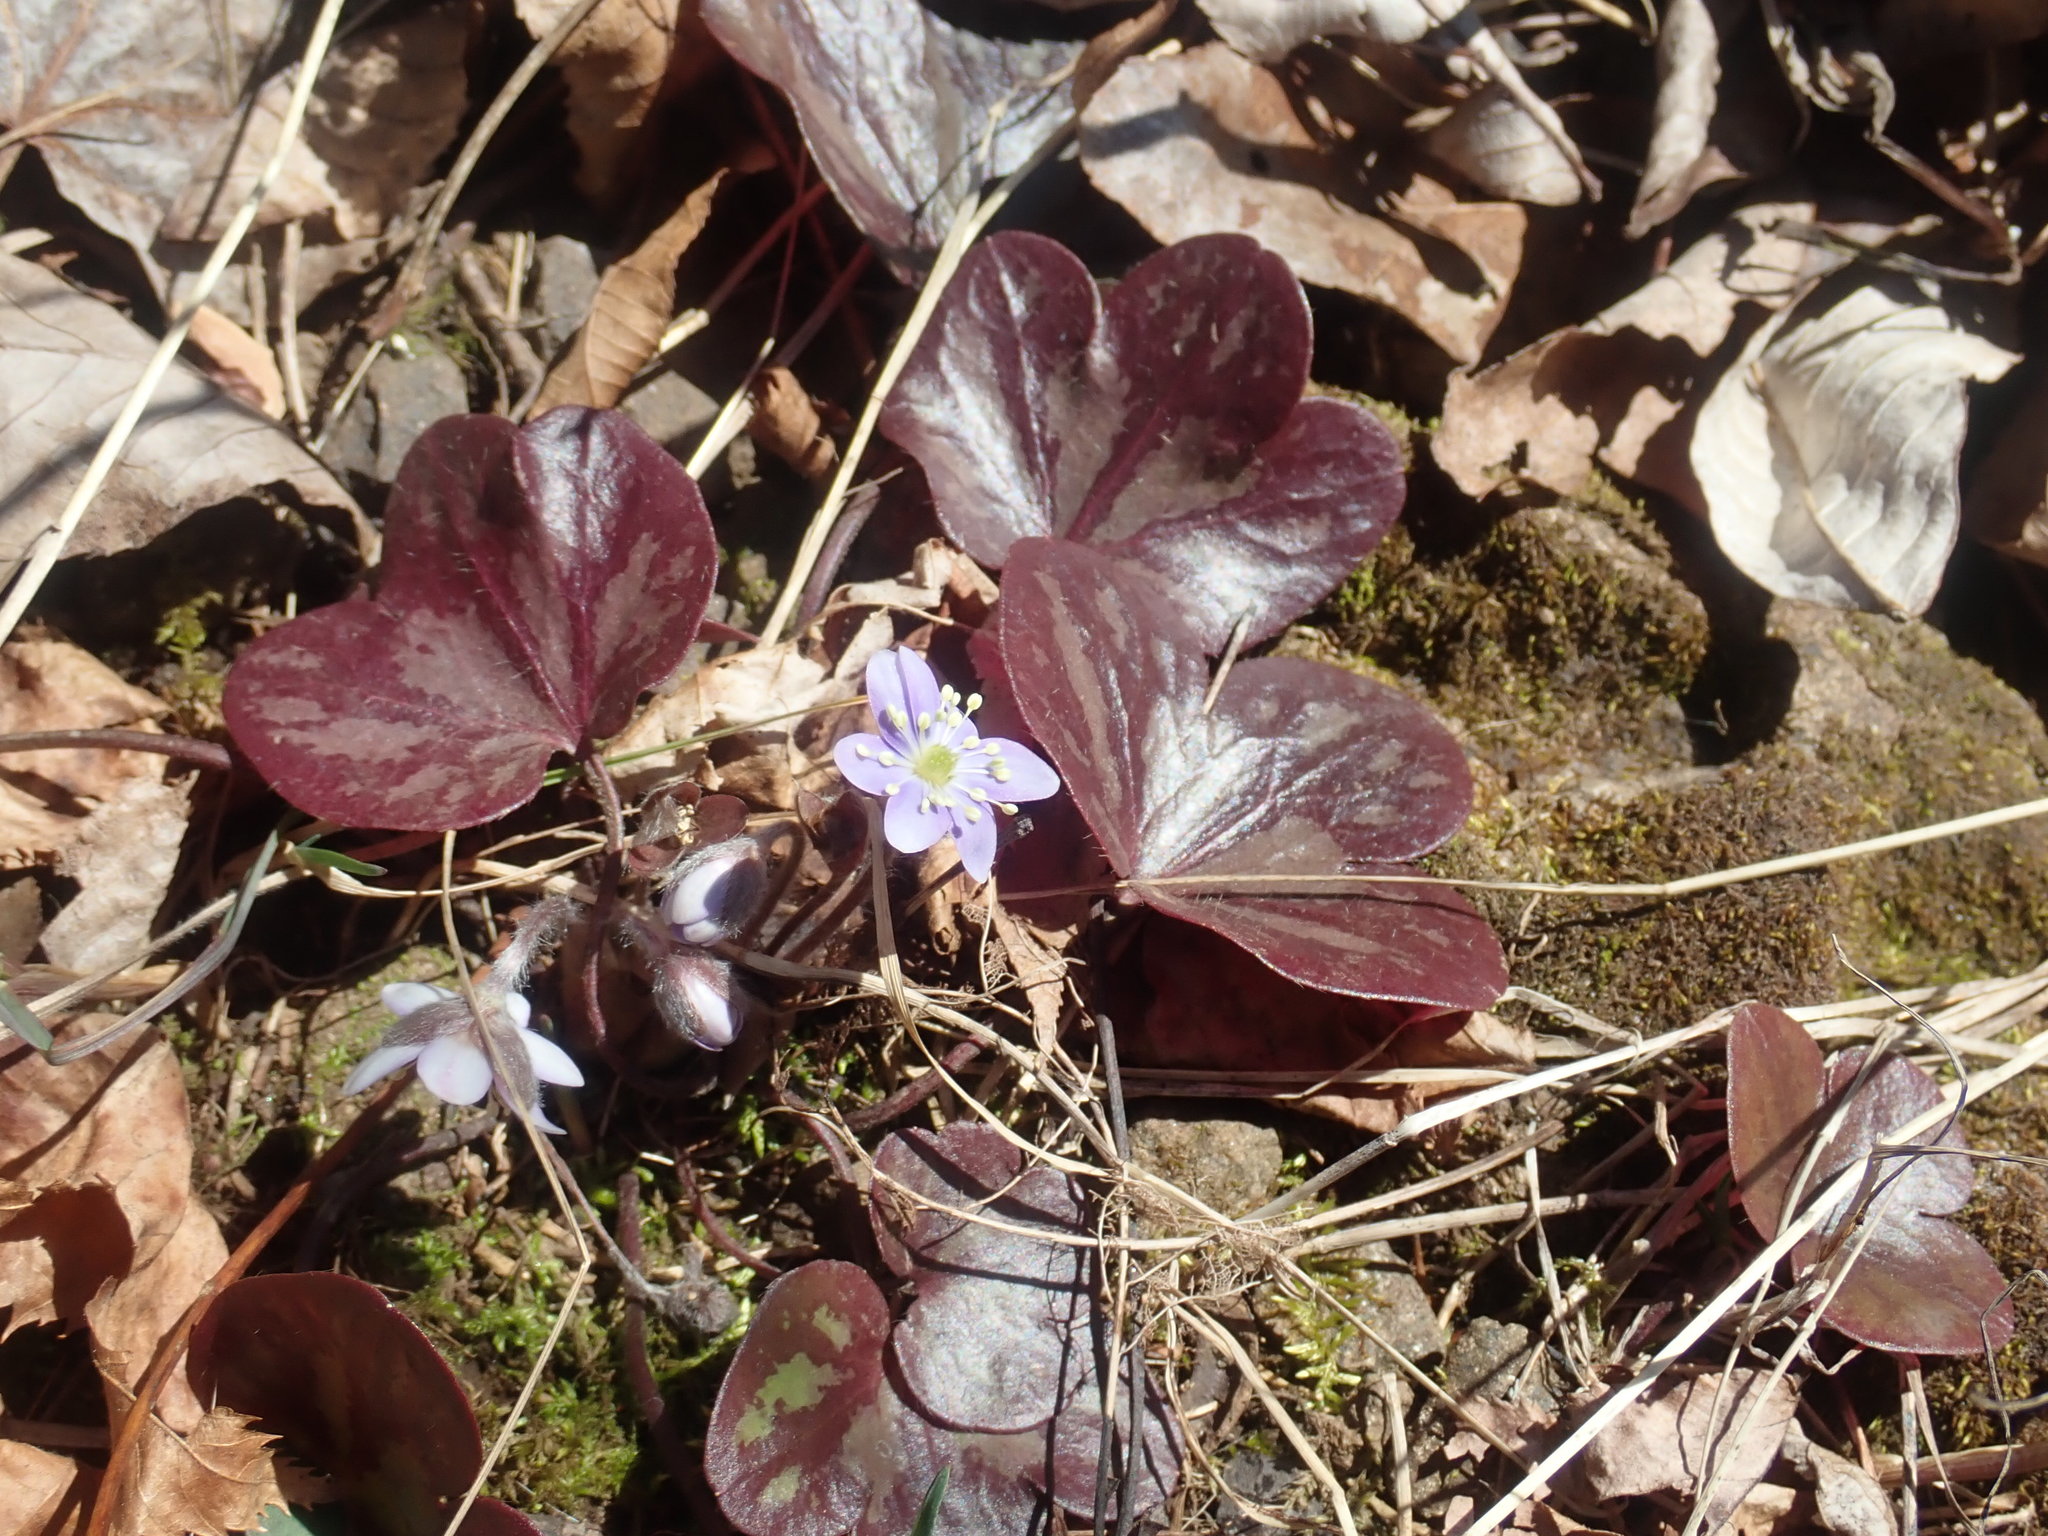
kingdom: Plantae
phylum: Tracheophyta
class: Magnoliopsida
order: Ranunculales
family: Ranunculaceae
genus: Hepatica
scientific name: Hepatica americana
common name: American hepatica
